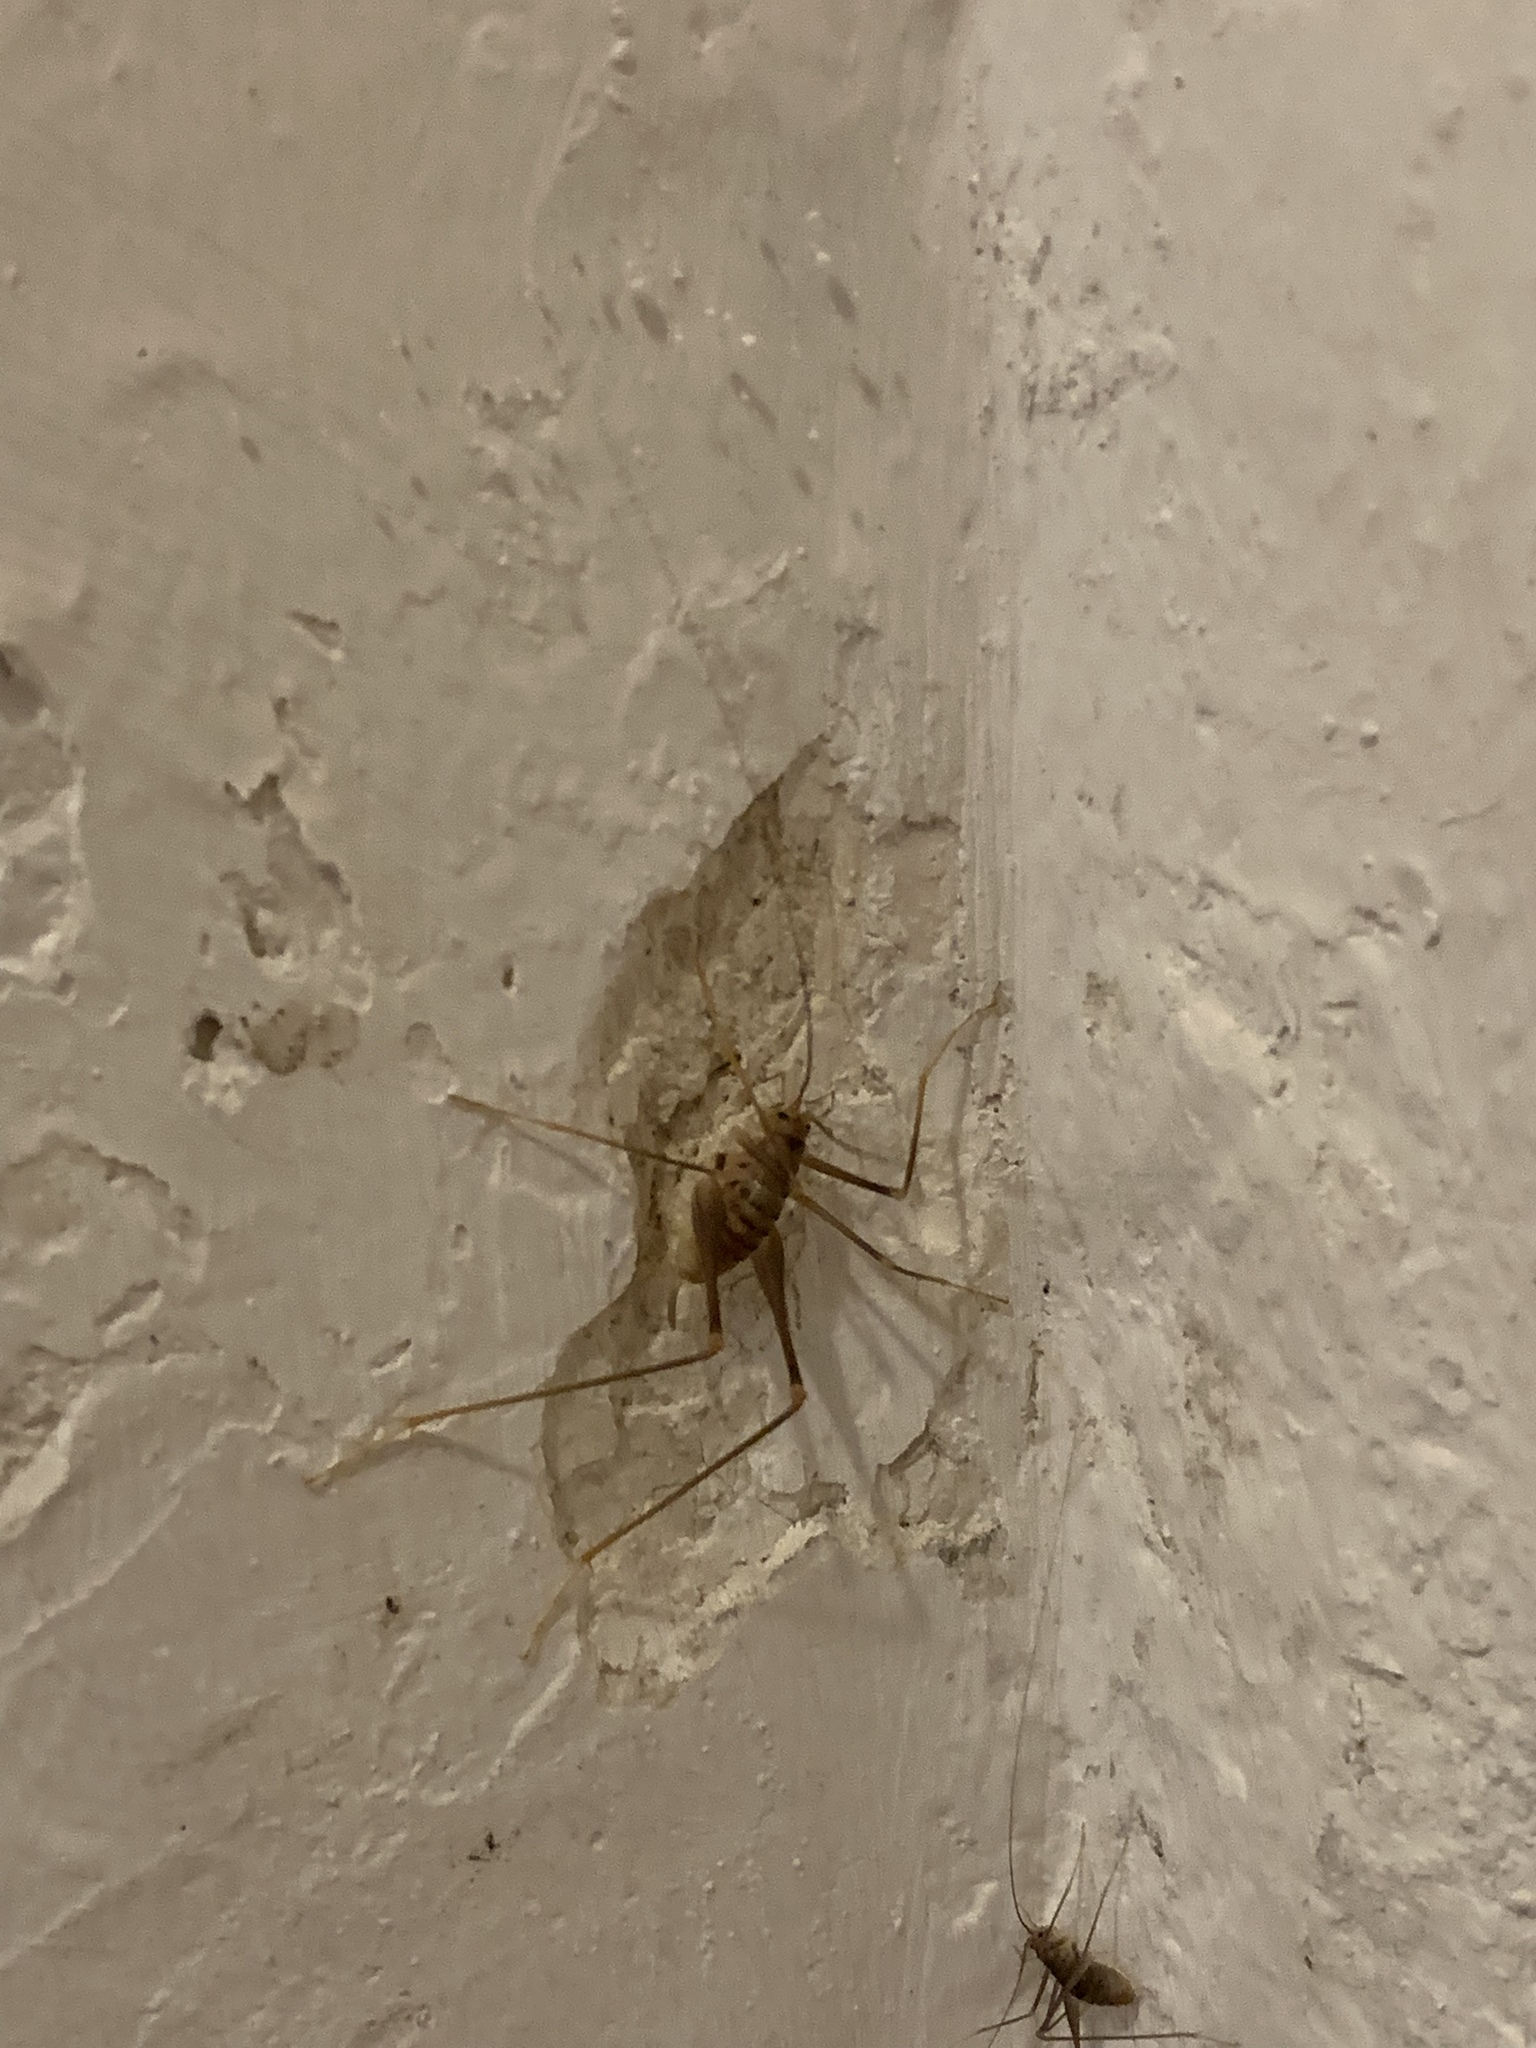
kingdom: Animalia
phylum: Arthropoda
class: Insecta
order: Orthoptera
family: Rhaphidophoridae
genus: Dolichopoda
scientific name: Dolichopoda palpata
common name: Palpate cave cricket
